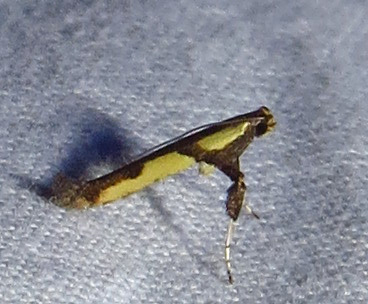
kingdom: Animalia
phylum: Arthropoda
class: Insecta
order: Lepidoptera
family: Gracillariidae
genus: Caloptilia
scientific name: Caloptilia blandella
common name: Walnut caloptilia moth
